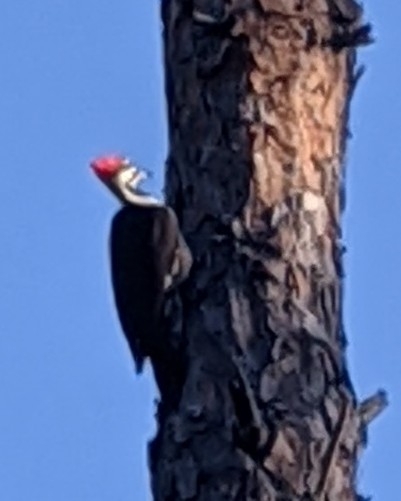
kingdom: Animalia
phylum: Chordata
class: Aves
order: Piciformes
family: Picidae
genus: Dryocopus
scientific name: Dryocopus pileatus
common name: Pileated woodpecker
